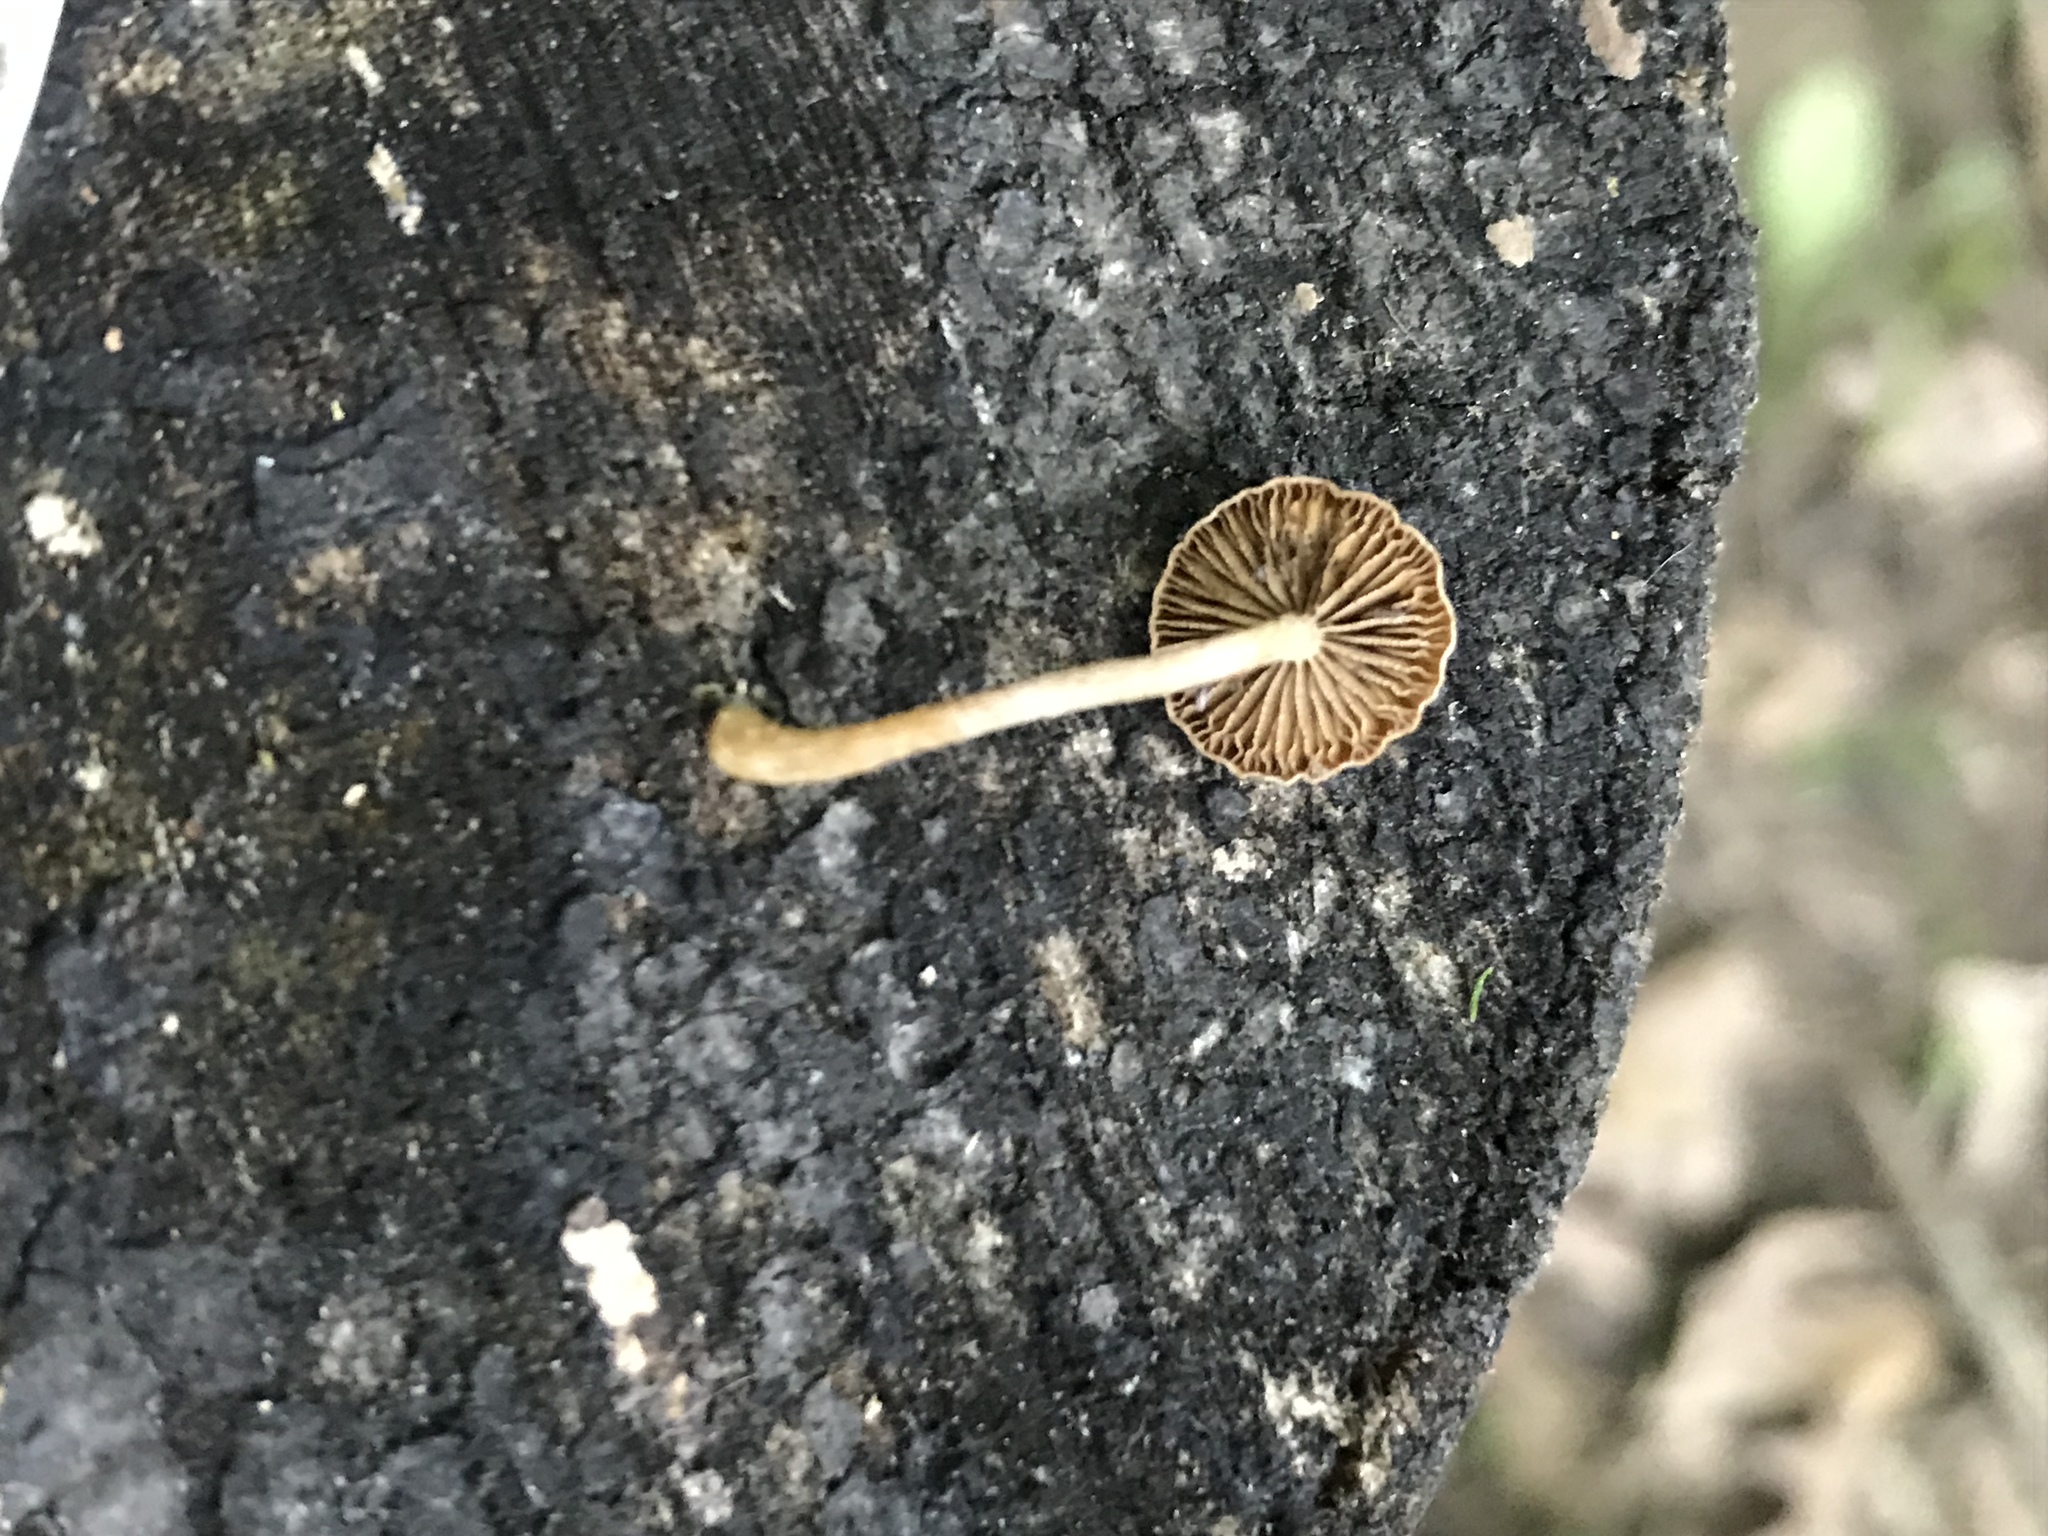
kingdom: Fungi
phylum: Basidiomycota
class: Agaricomycetes
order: Agaricales
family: Crepidotaceae
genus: Simocybe
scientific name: Simocybe serrulata
